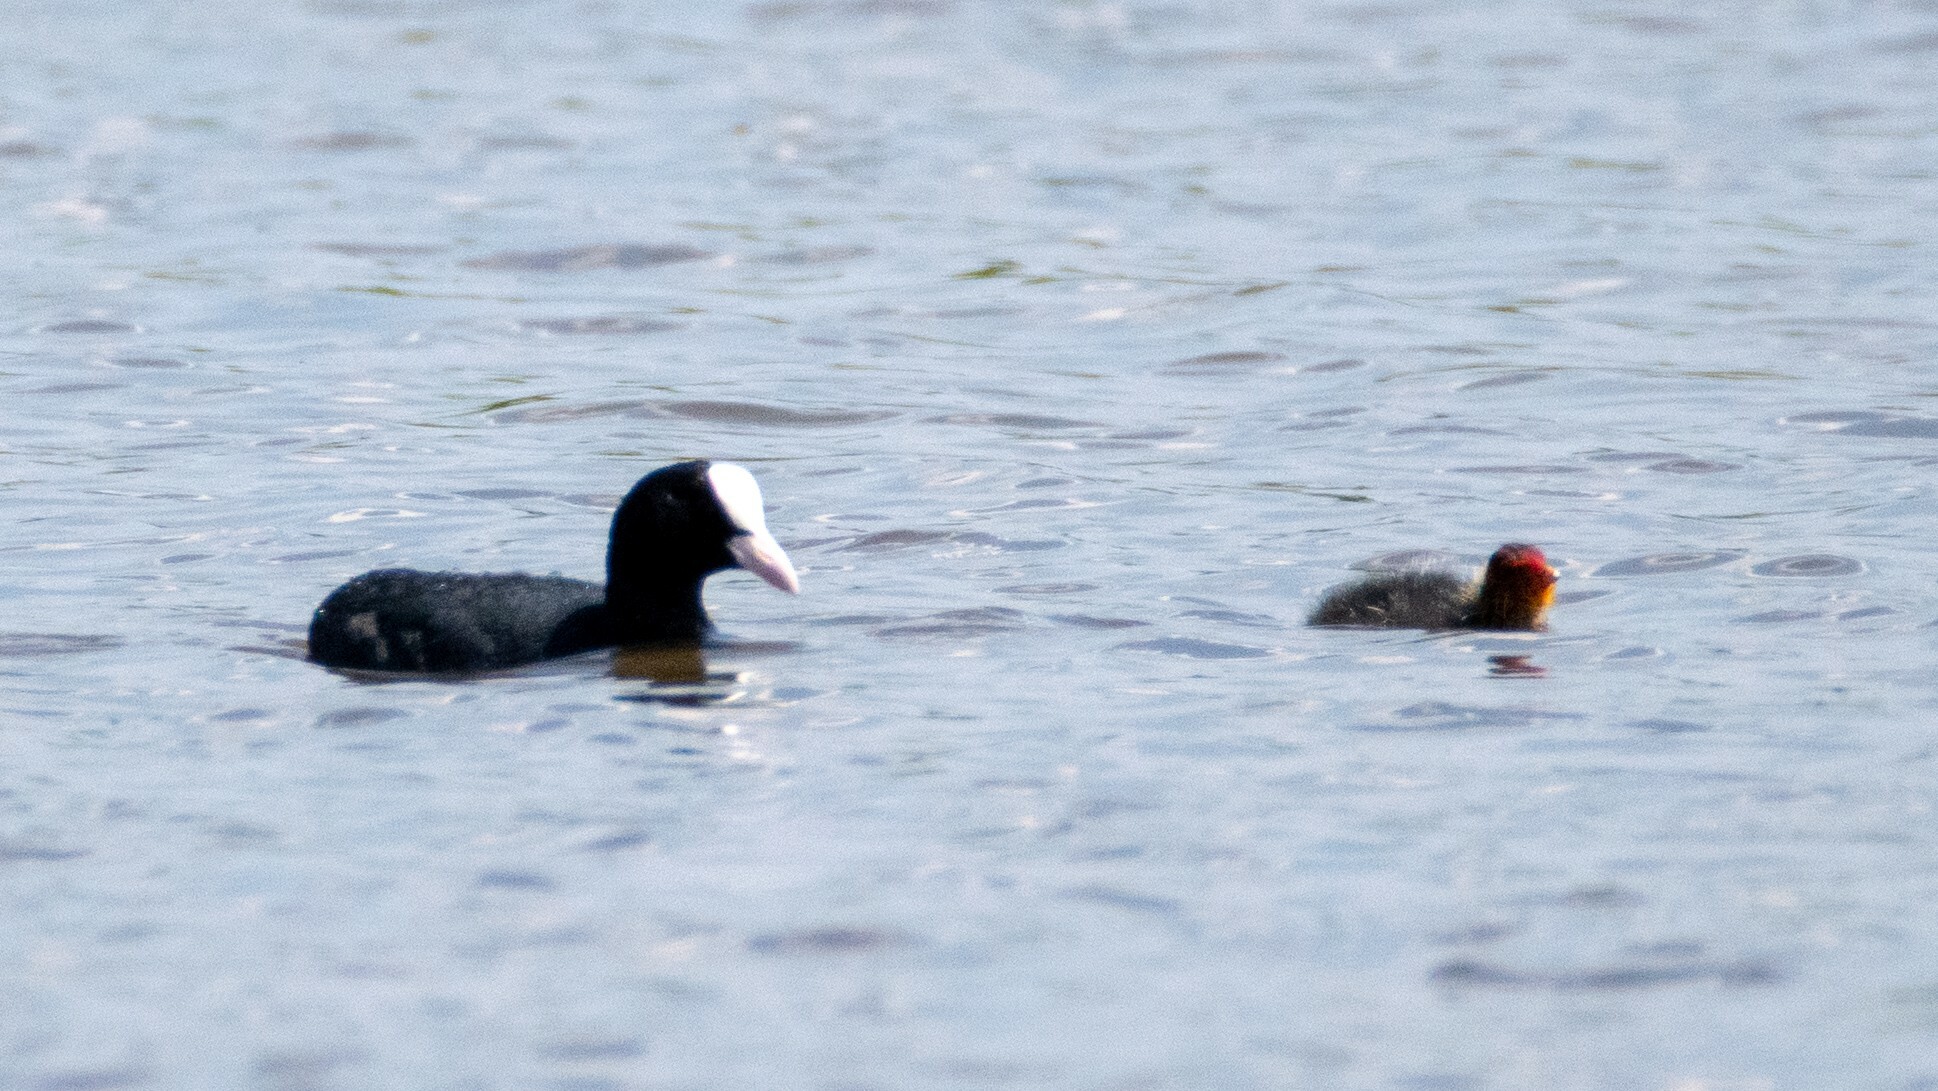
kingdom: Animalia
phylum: Chordata
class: Aves
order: Gruiformes
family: Rallidae
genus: Fulica
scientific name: Fulica atra
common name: Eurasian coot
